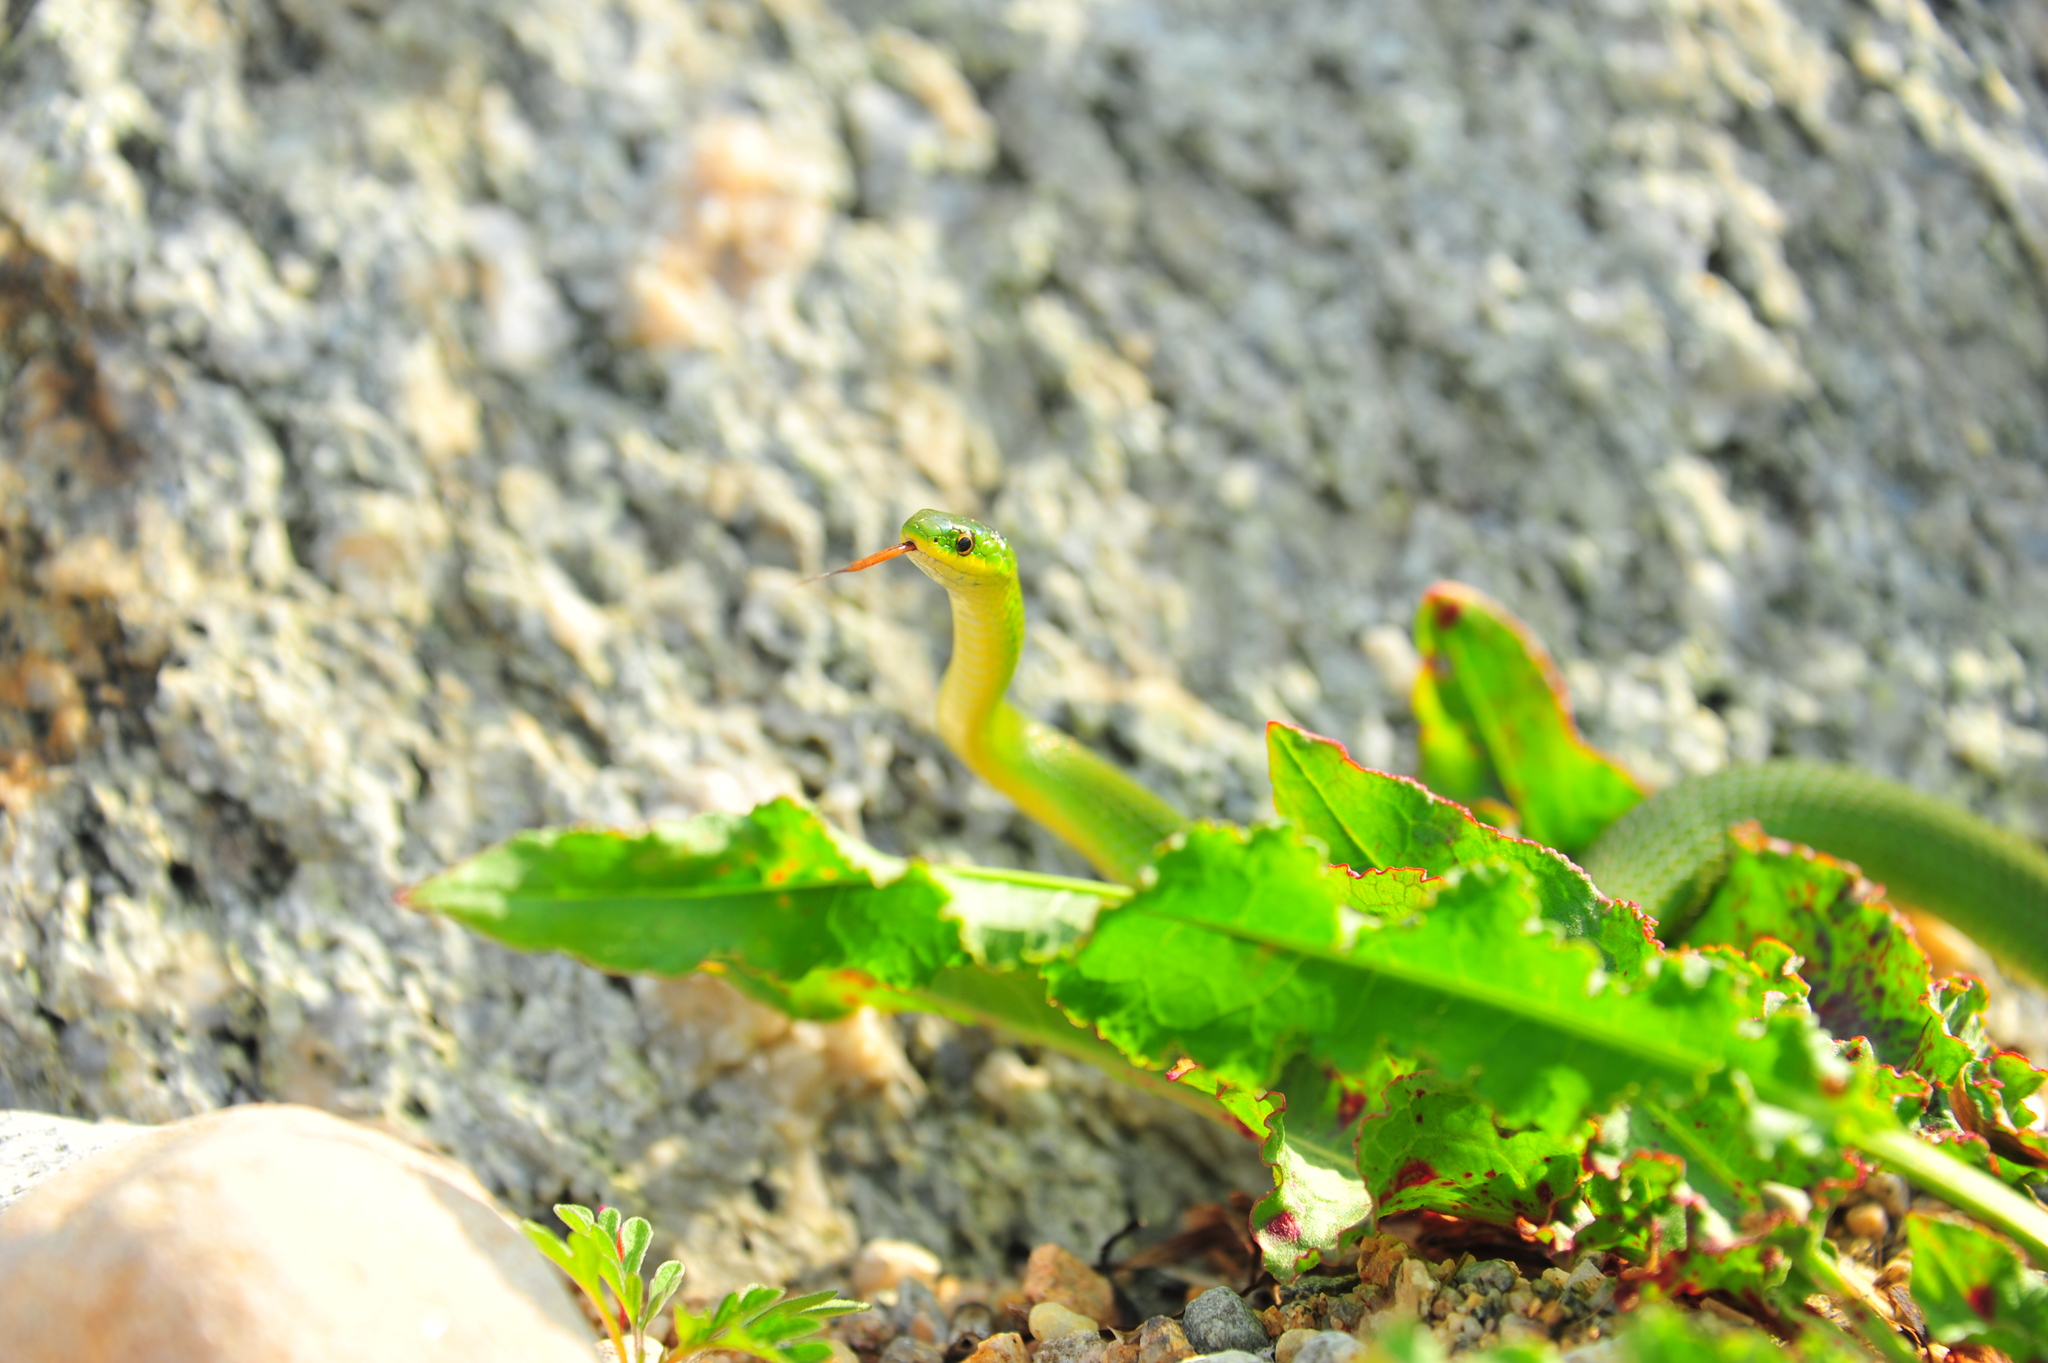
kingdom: Animalia
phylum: Chordata
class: Squamata
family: Colubridae
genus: Opheodrys
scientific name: Opheodrys vernalis
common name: Smooth green snake
